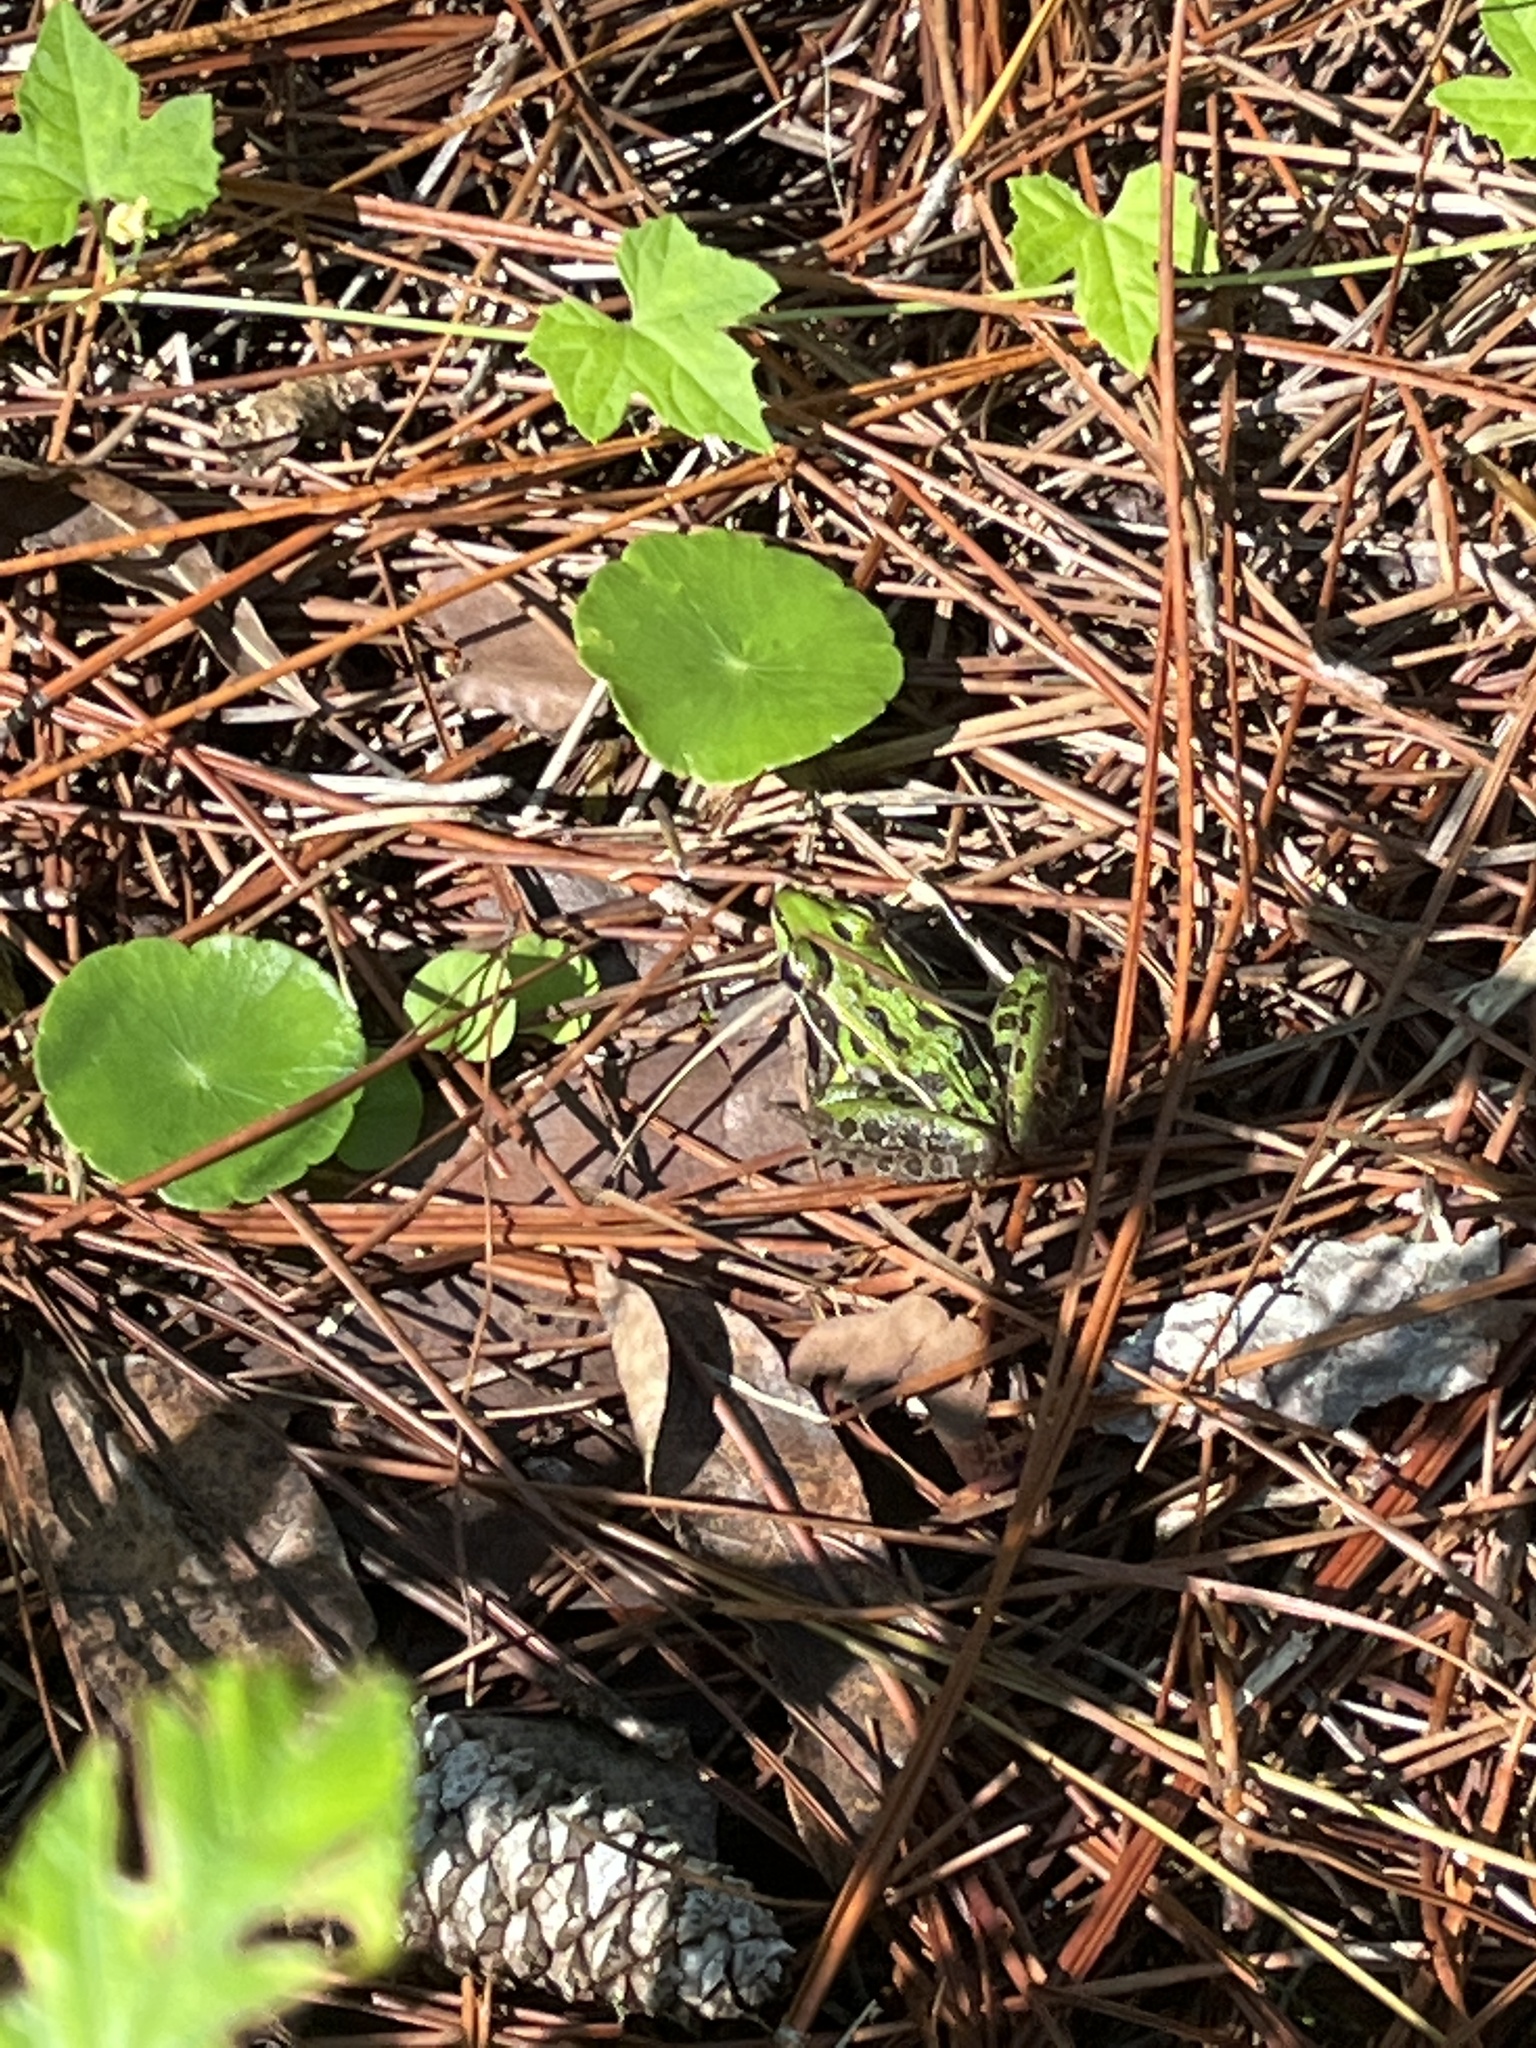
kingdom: Animalia
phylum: Chordata
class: Amphibia
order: Anura
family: Ranidae
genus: Lithobates
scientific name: Lithobates sphenocephalus
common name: Southern leopard frog
